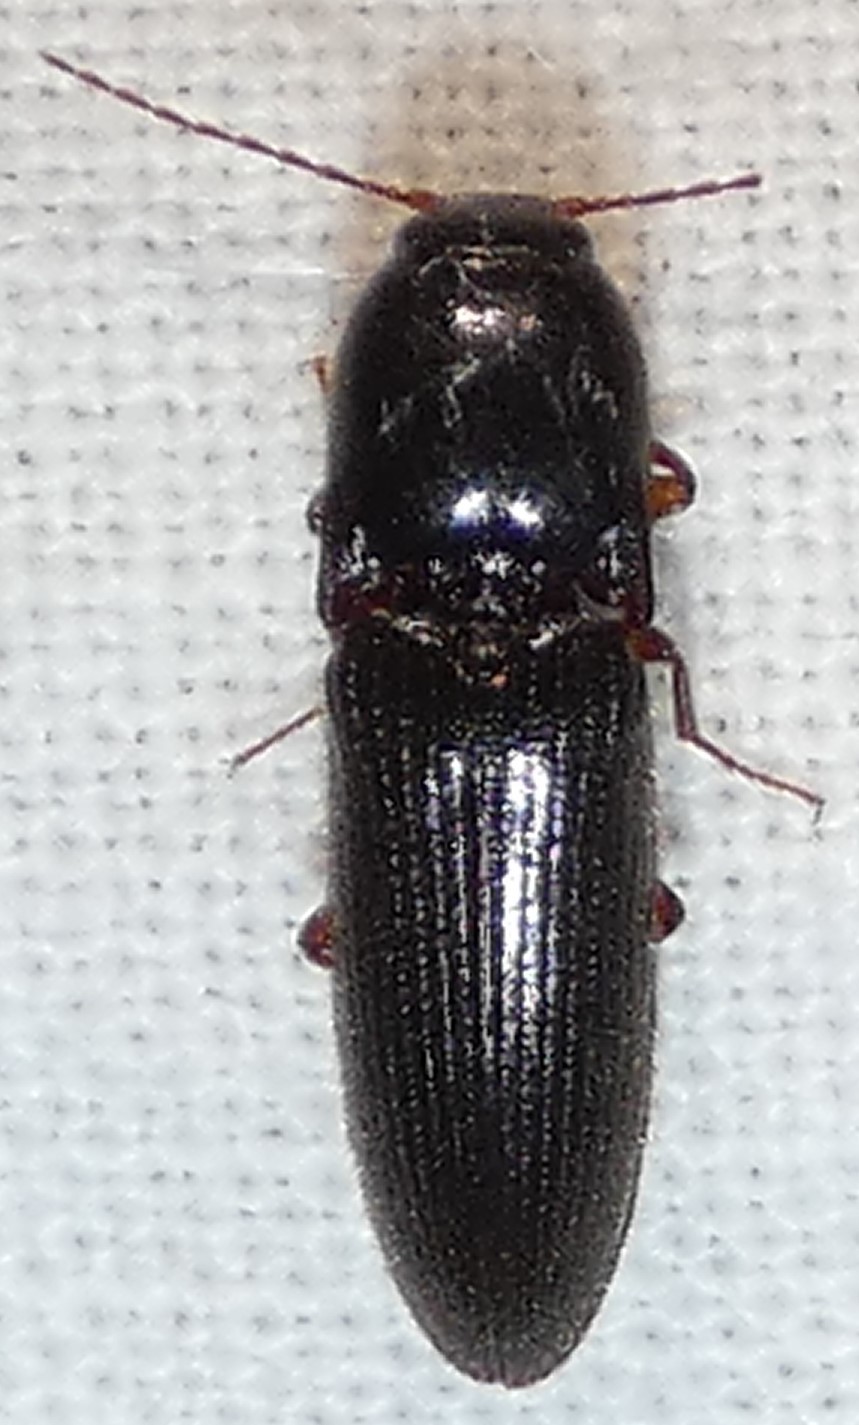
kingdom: Animalia
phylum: Arthropoda
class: Insecta
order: Coleoptera
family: Elateridae
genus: Melanotus
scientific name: Melanotus ignobilis
